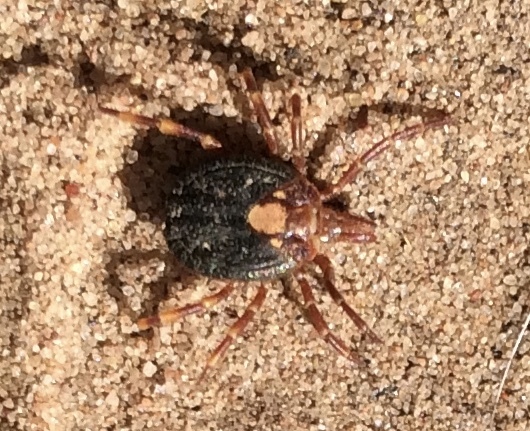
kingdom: Animalia
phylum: Arthropoda
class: Arachnida
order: Ixodida
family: Ixodidae
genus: Amblyomma
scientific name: Amblyomma hebraeum
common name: Bont tick
